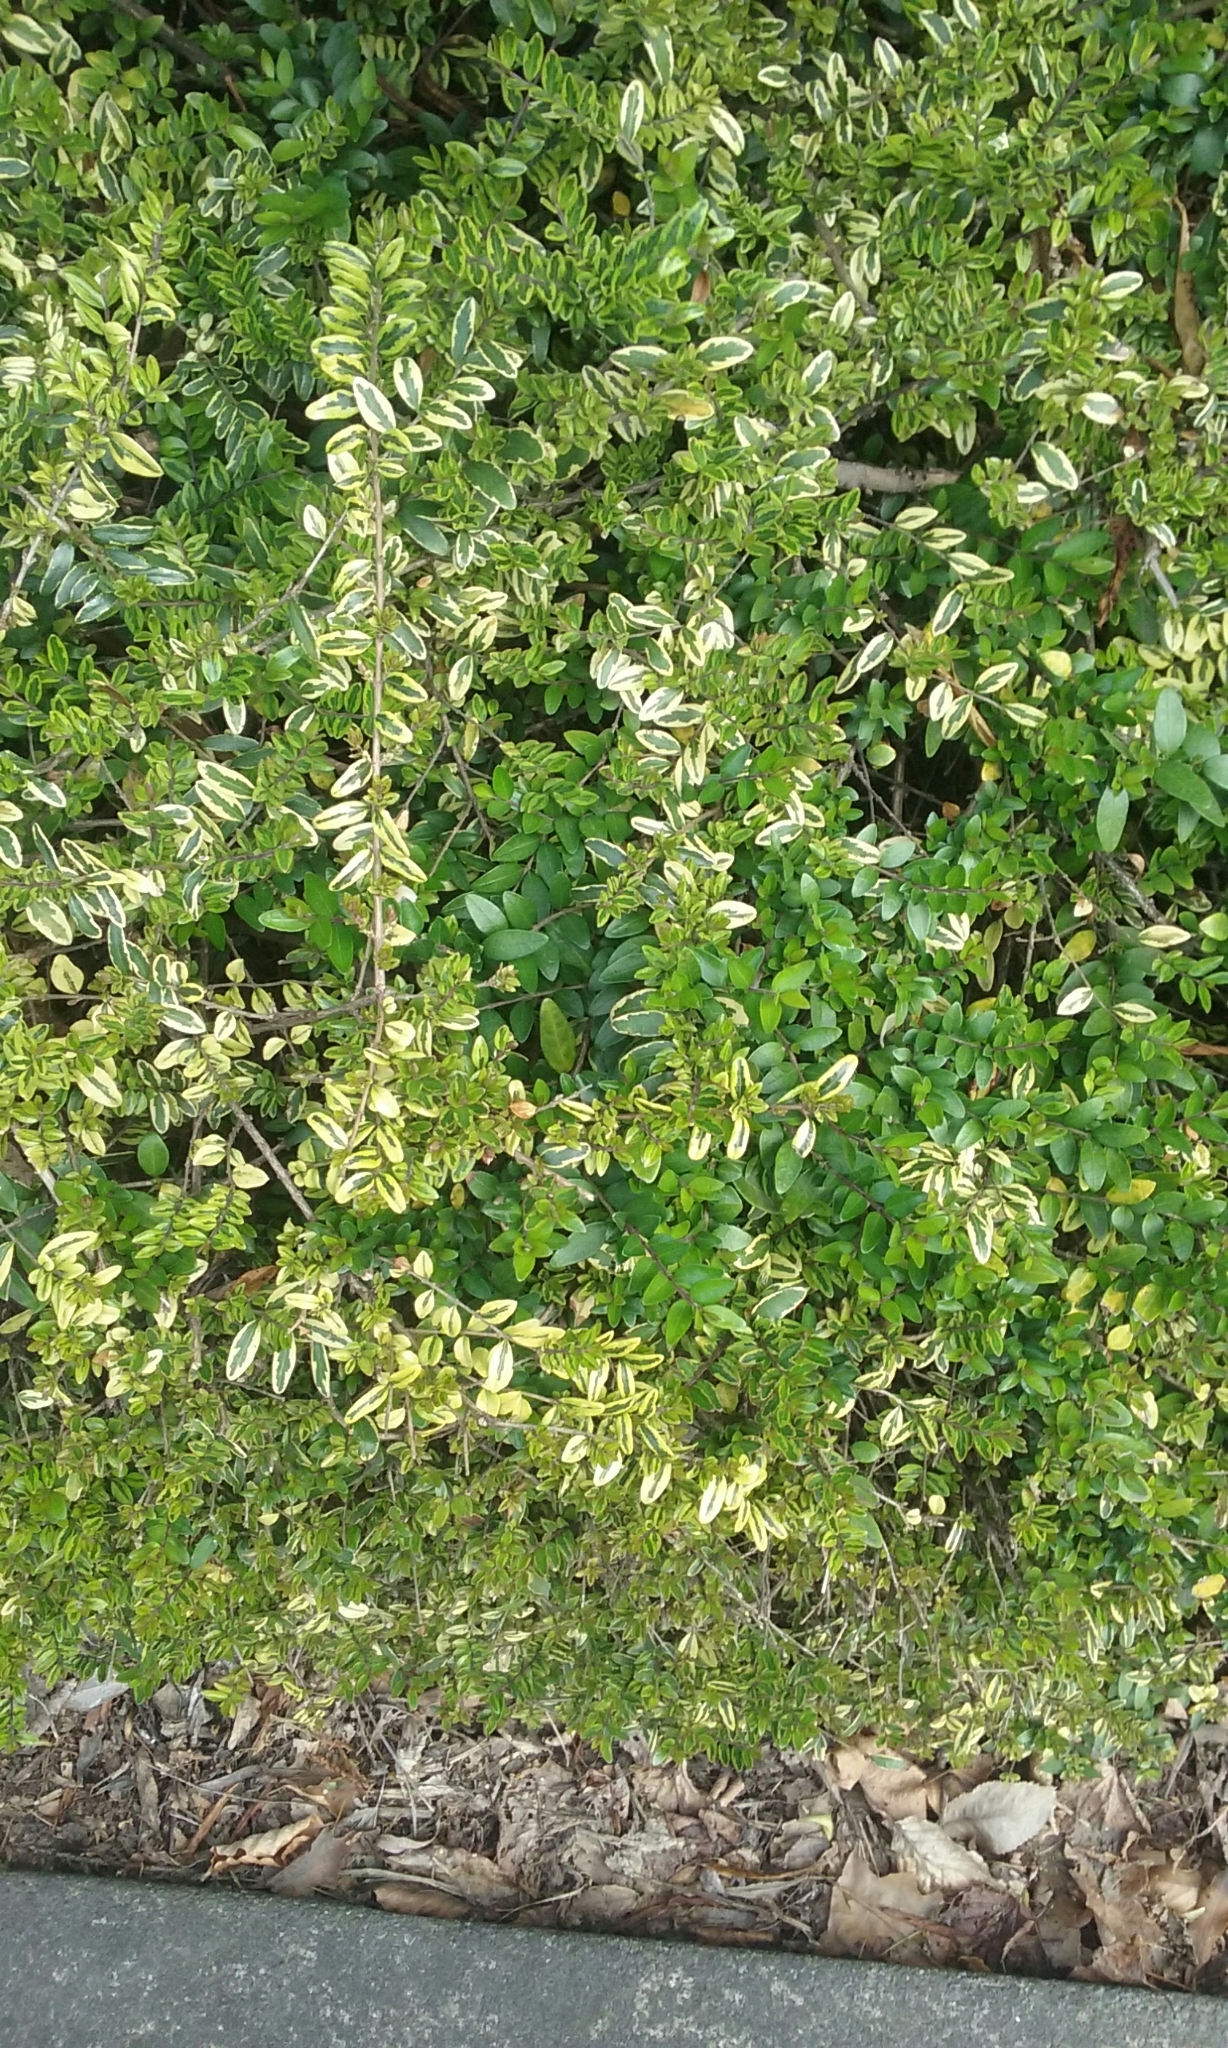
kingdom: Plantae
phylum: Tracheophyta
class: Magnoliopsida
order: Dipsacales
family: Caprifoliaceae
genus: Lonicera
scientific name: Lonicera pileata
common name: Box-leaved honeysuckle
